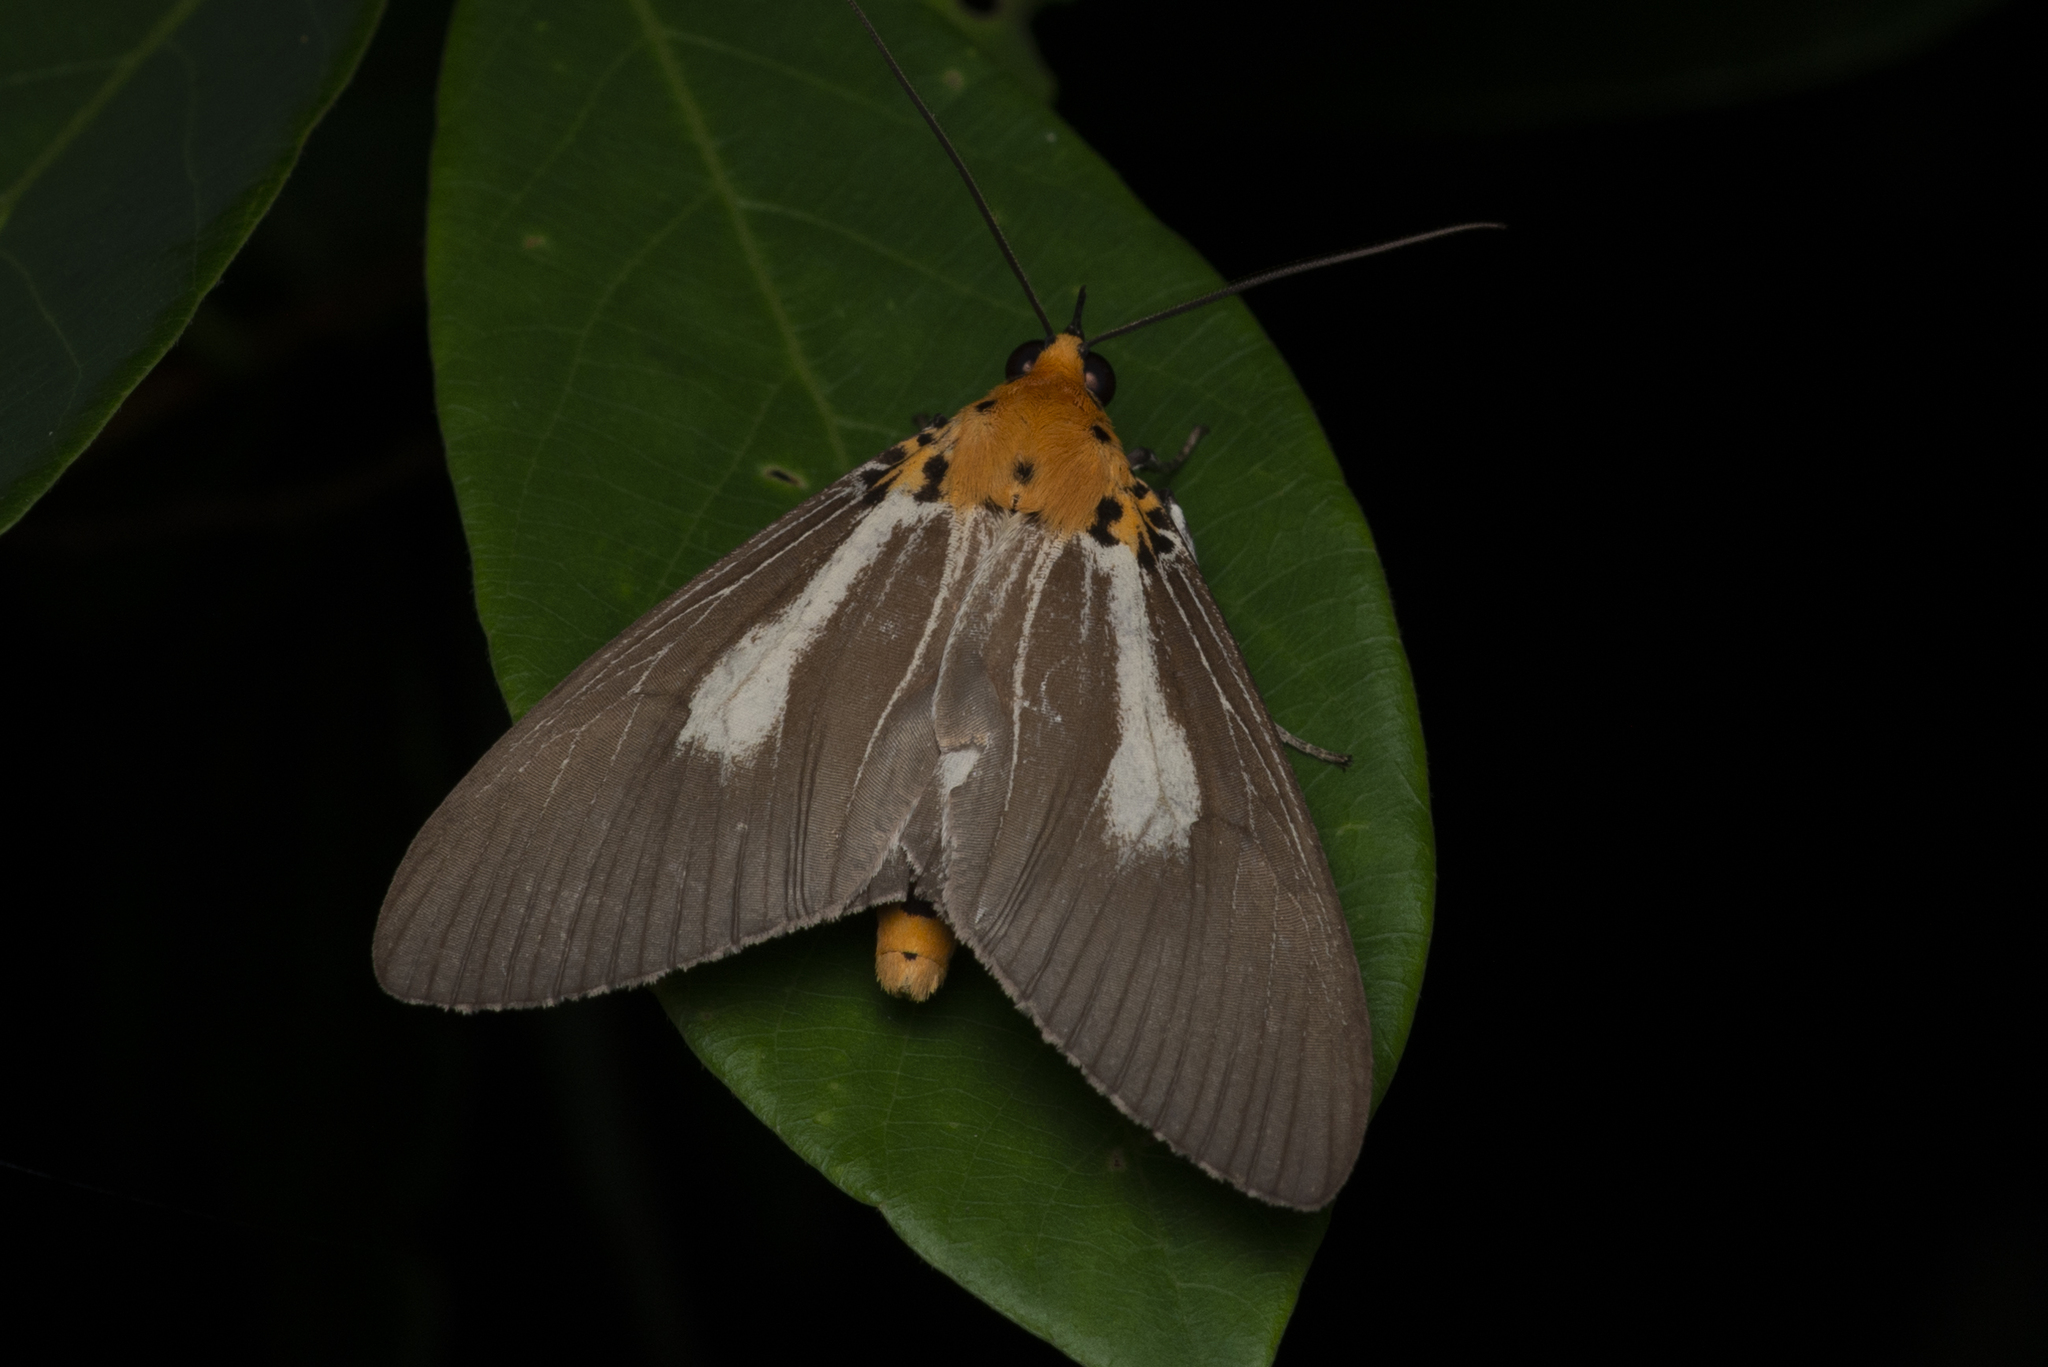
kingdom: Animalia
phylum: Arthropoda
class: Insecta
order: Lepidoptera
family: Erebidae
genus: Asota
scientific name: Asota heliconia
